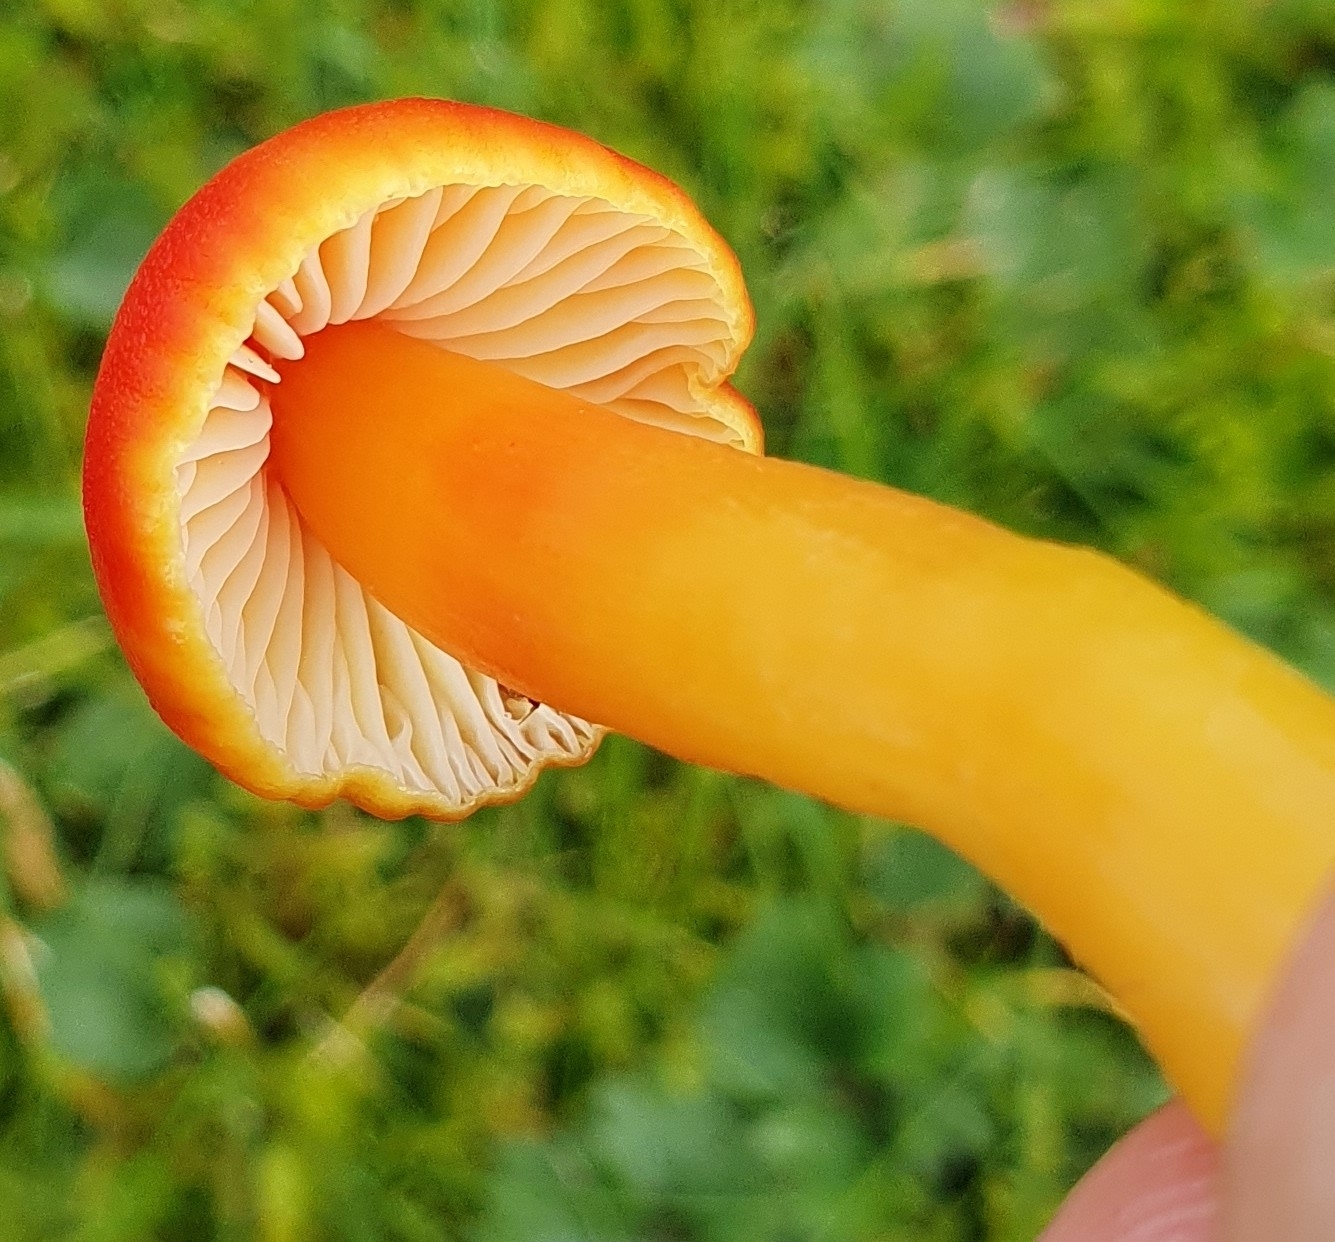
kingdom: Fungi
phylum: Basidiomycota
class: Agaricomycetes
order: Agaricales
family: Hygrophoraceae
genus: Hygrocybe
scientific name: Hygrocybe reidii
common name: Honey waxcap
